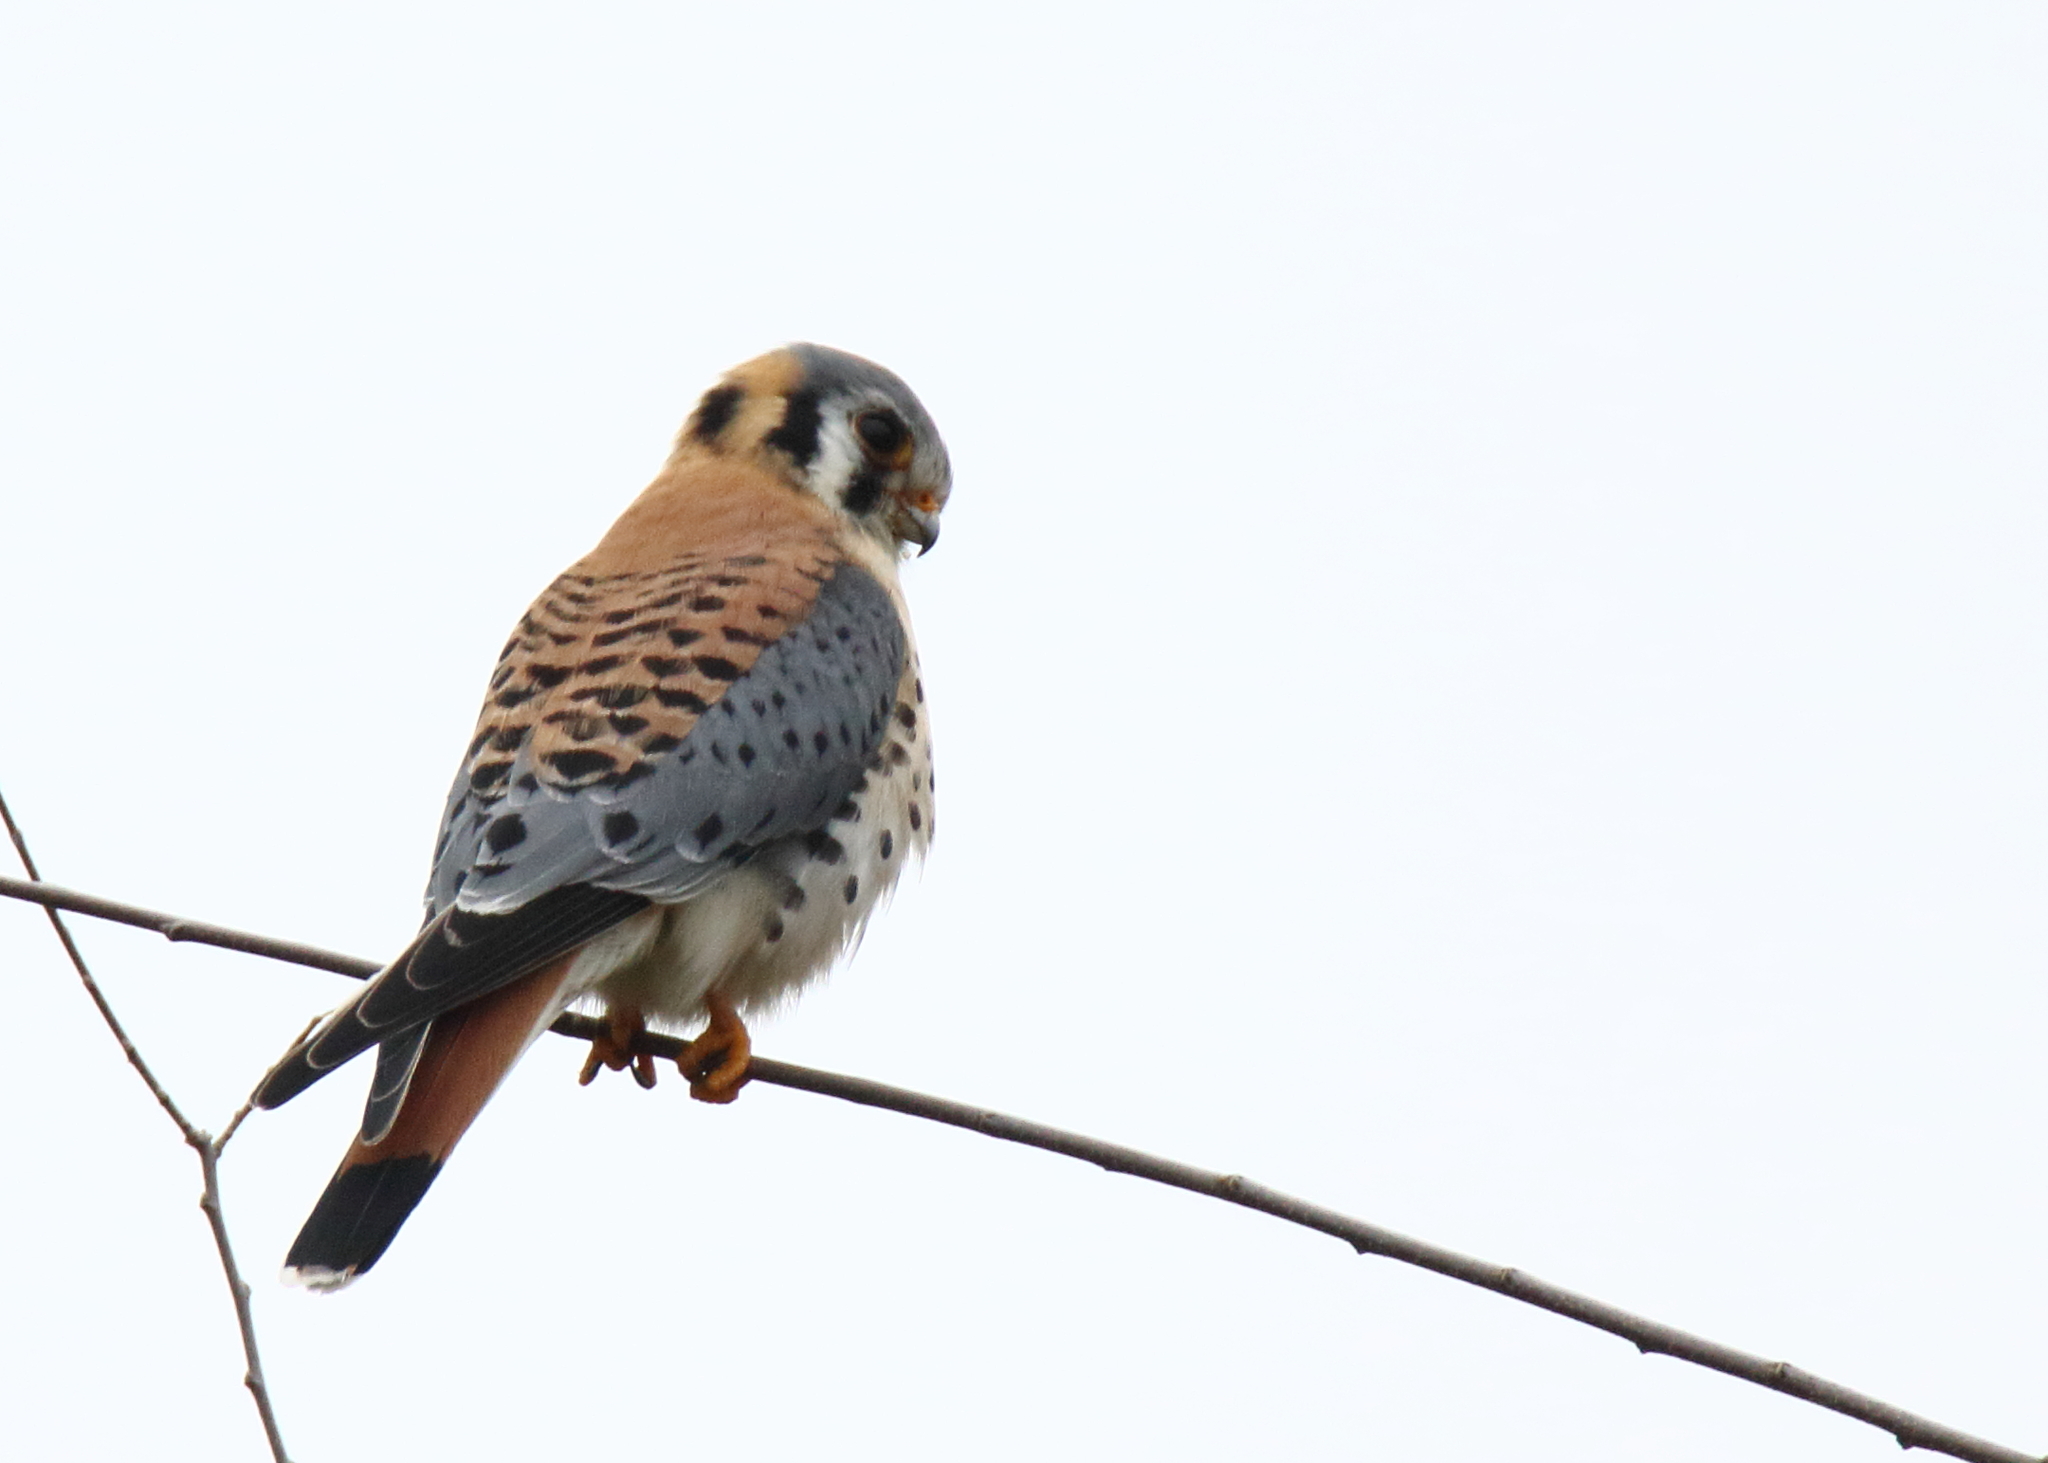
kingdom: Animalia
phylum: Chordata
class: Aves
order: Falconiformes
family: Falconidae
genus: Falco
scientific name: Falco sparverius
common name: American kestrel
